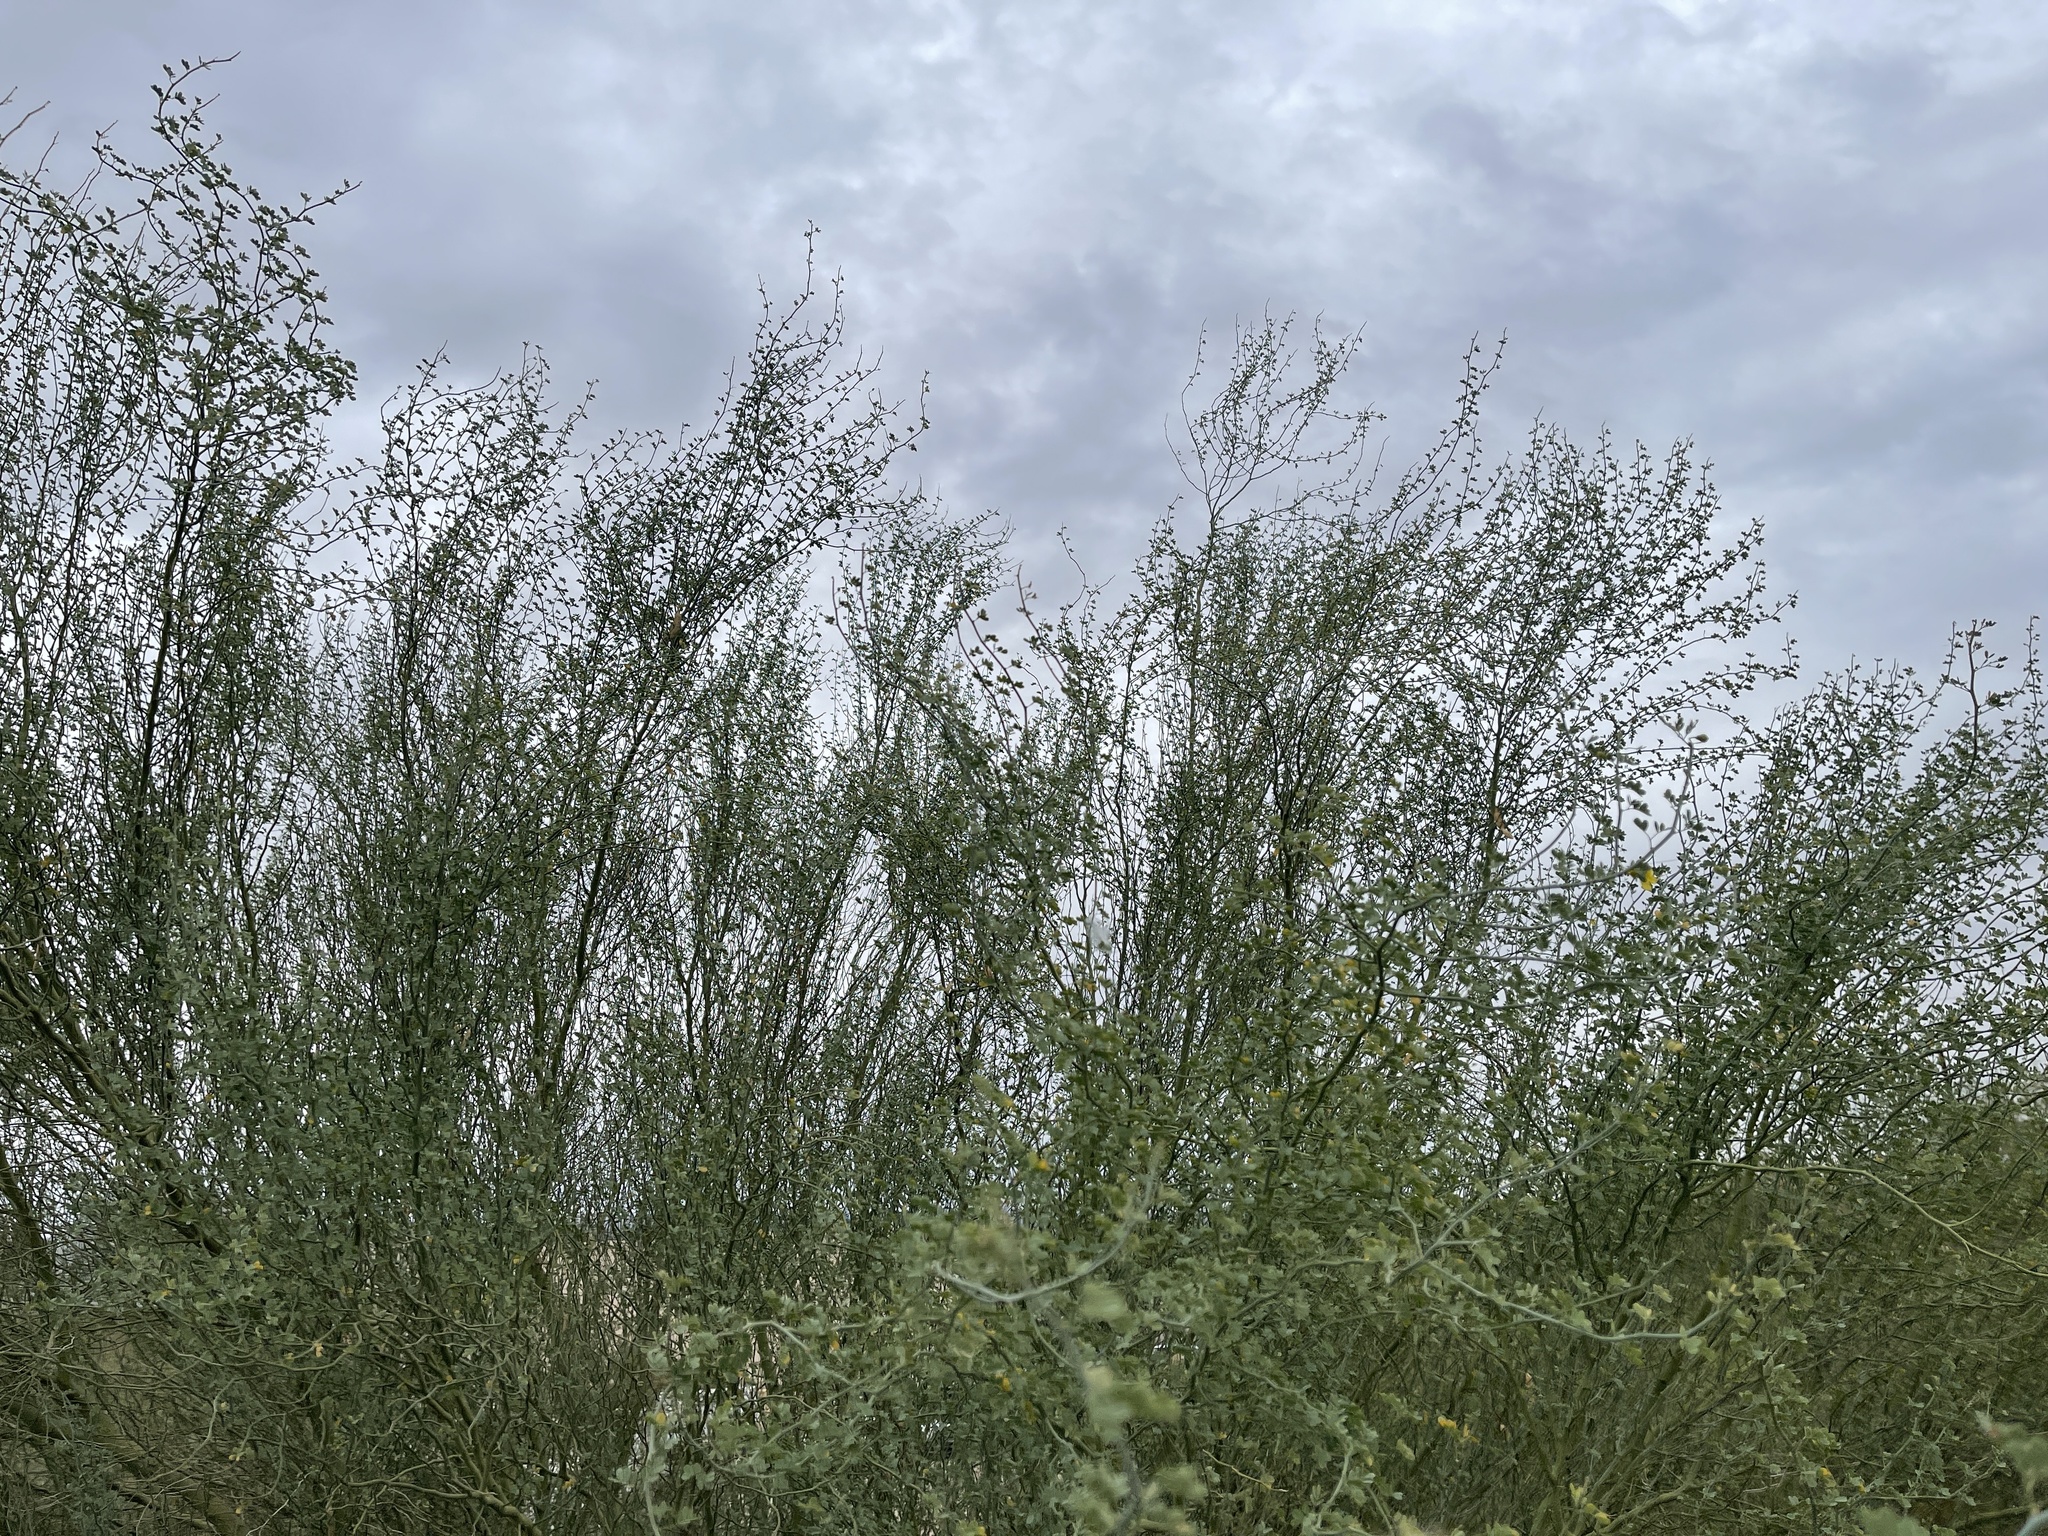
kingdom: Plantae
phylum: Tracheophyta
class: Magnoliopsida
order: Fabales
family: Fabaceae
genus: Parkinsonia
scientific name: Parkinsonia florida
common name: Blue paloverde
